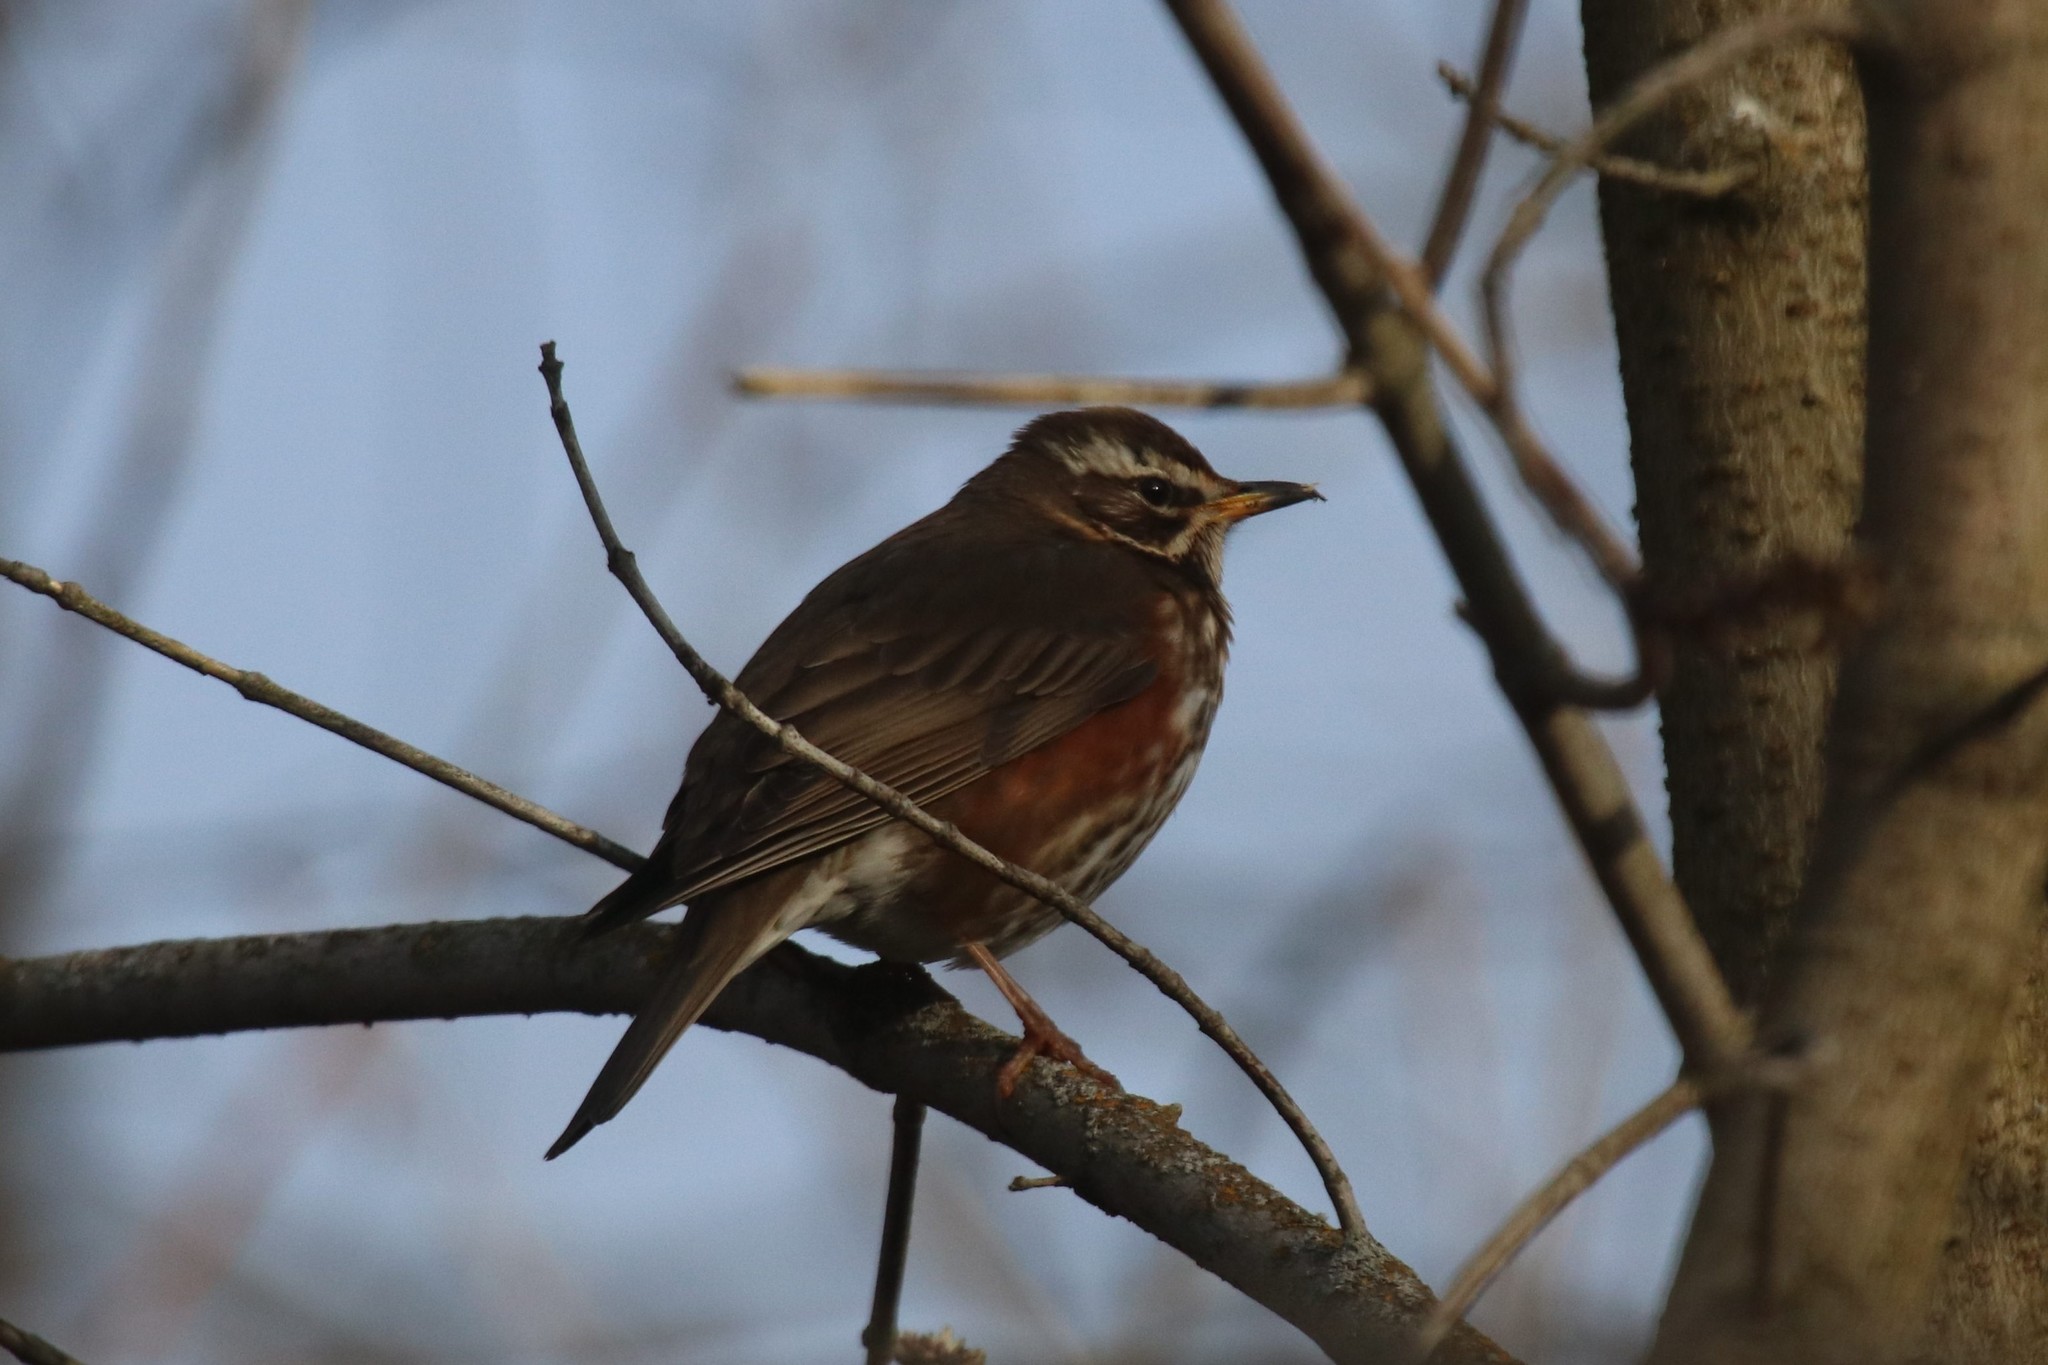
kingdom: Animalia
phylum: Chordata
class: Aves
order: Passeriformes
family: Turdidae
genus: Turdus
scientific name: Turdus iliacus
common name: Redwing
